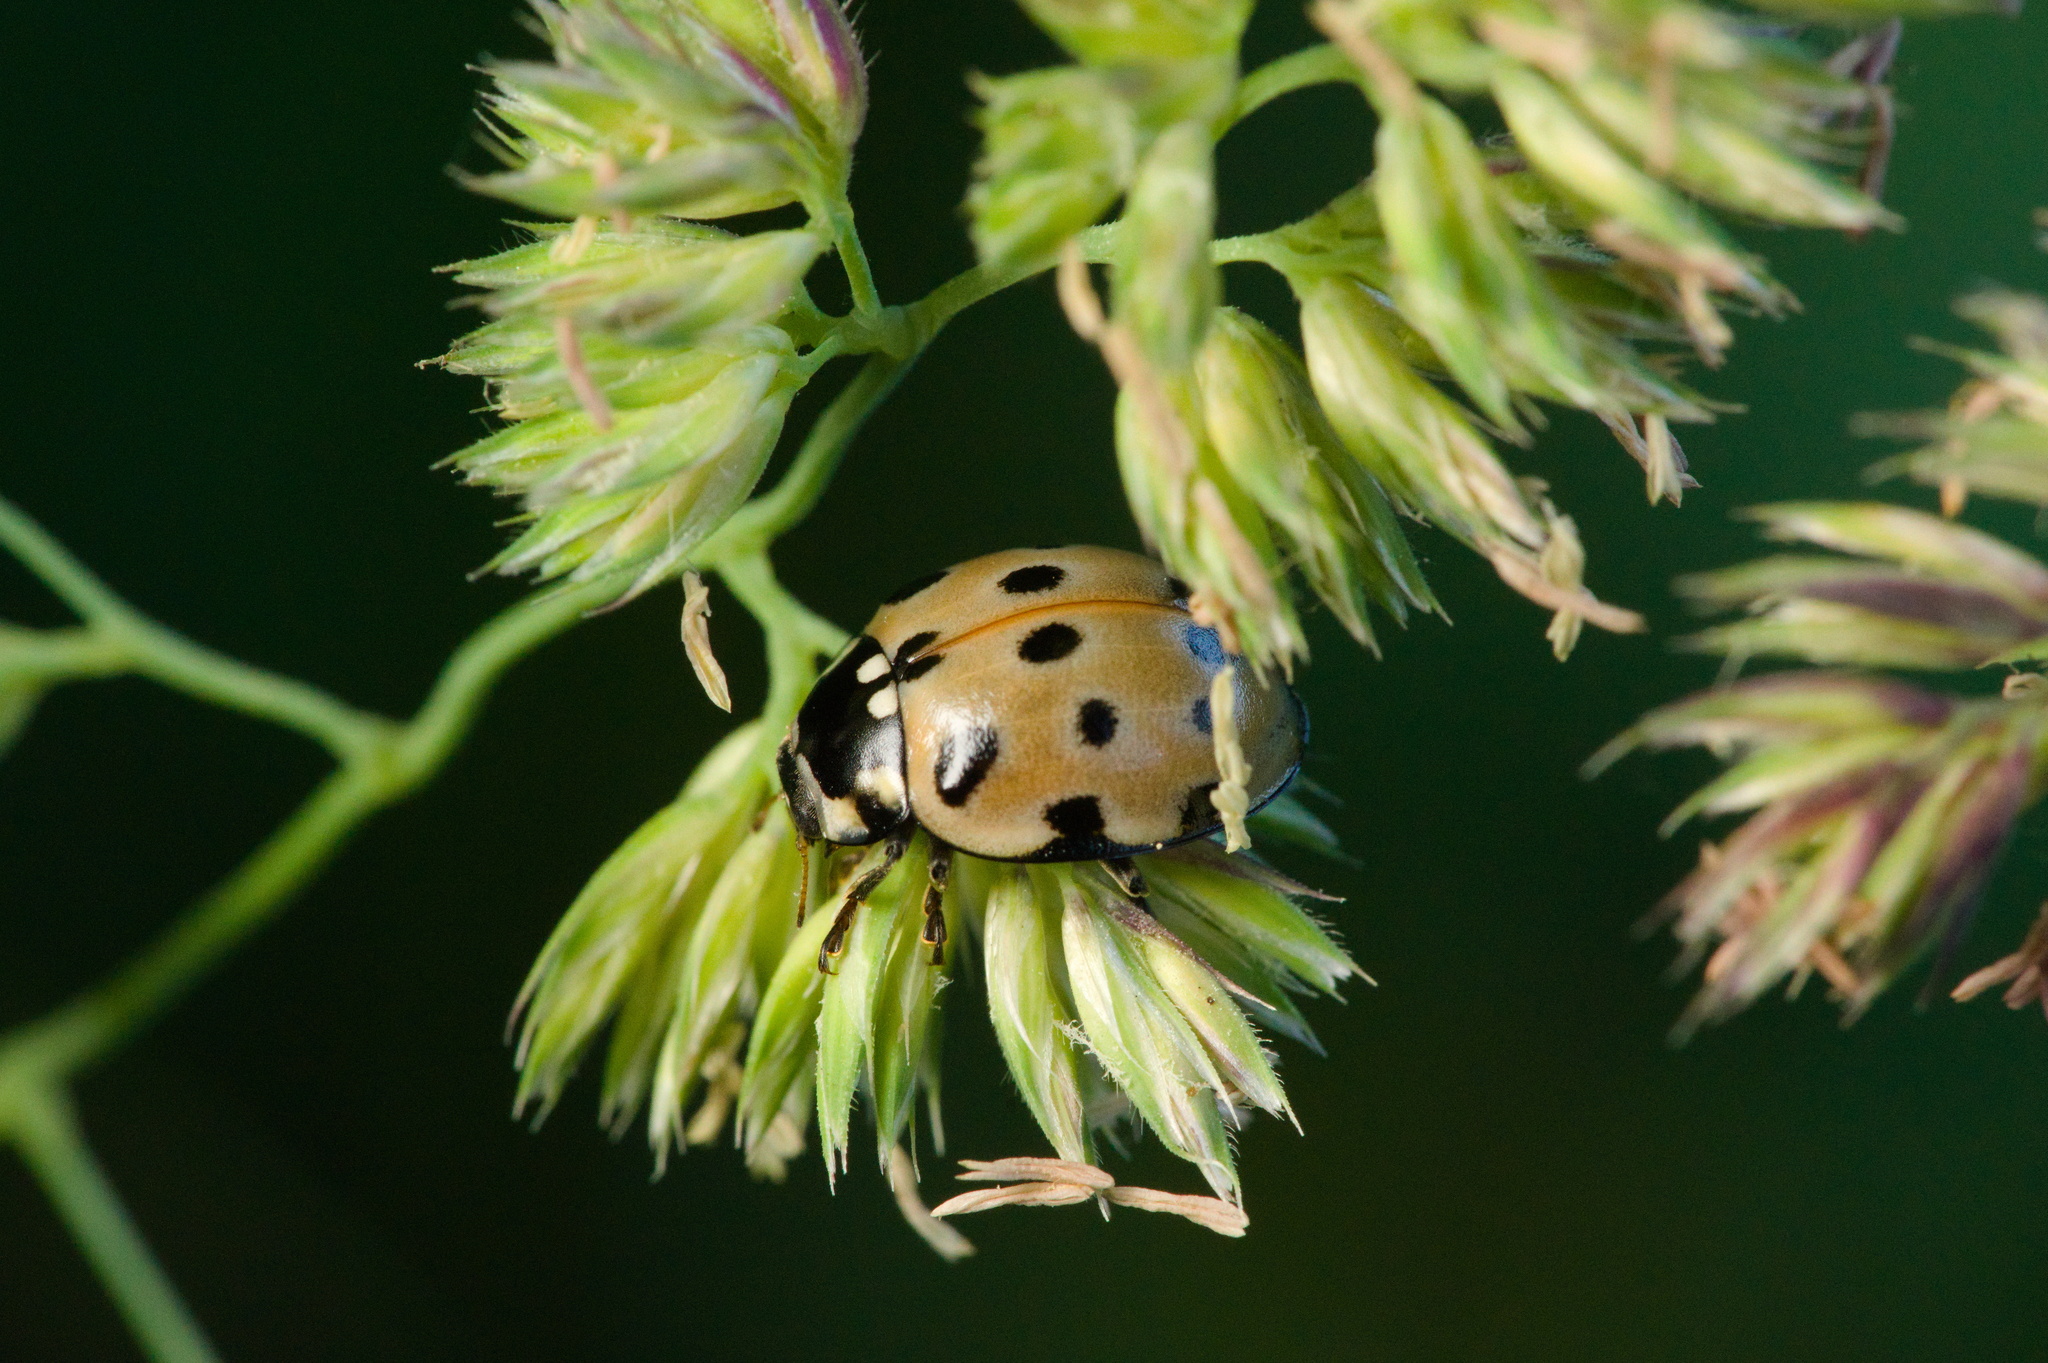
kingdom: Animalia
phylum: Arthropoda
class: Insecta
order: Coleoptera
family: Coccinellidae
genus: Anatis
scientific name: Anatis ocellata
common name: Eyed ladybird
